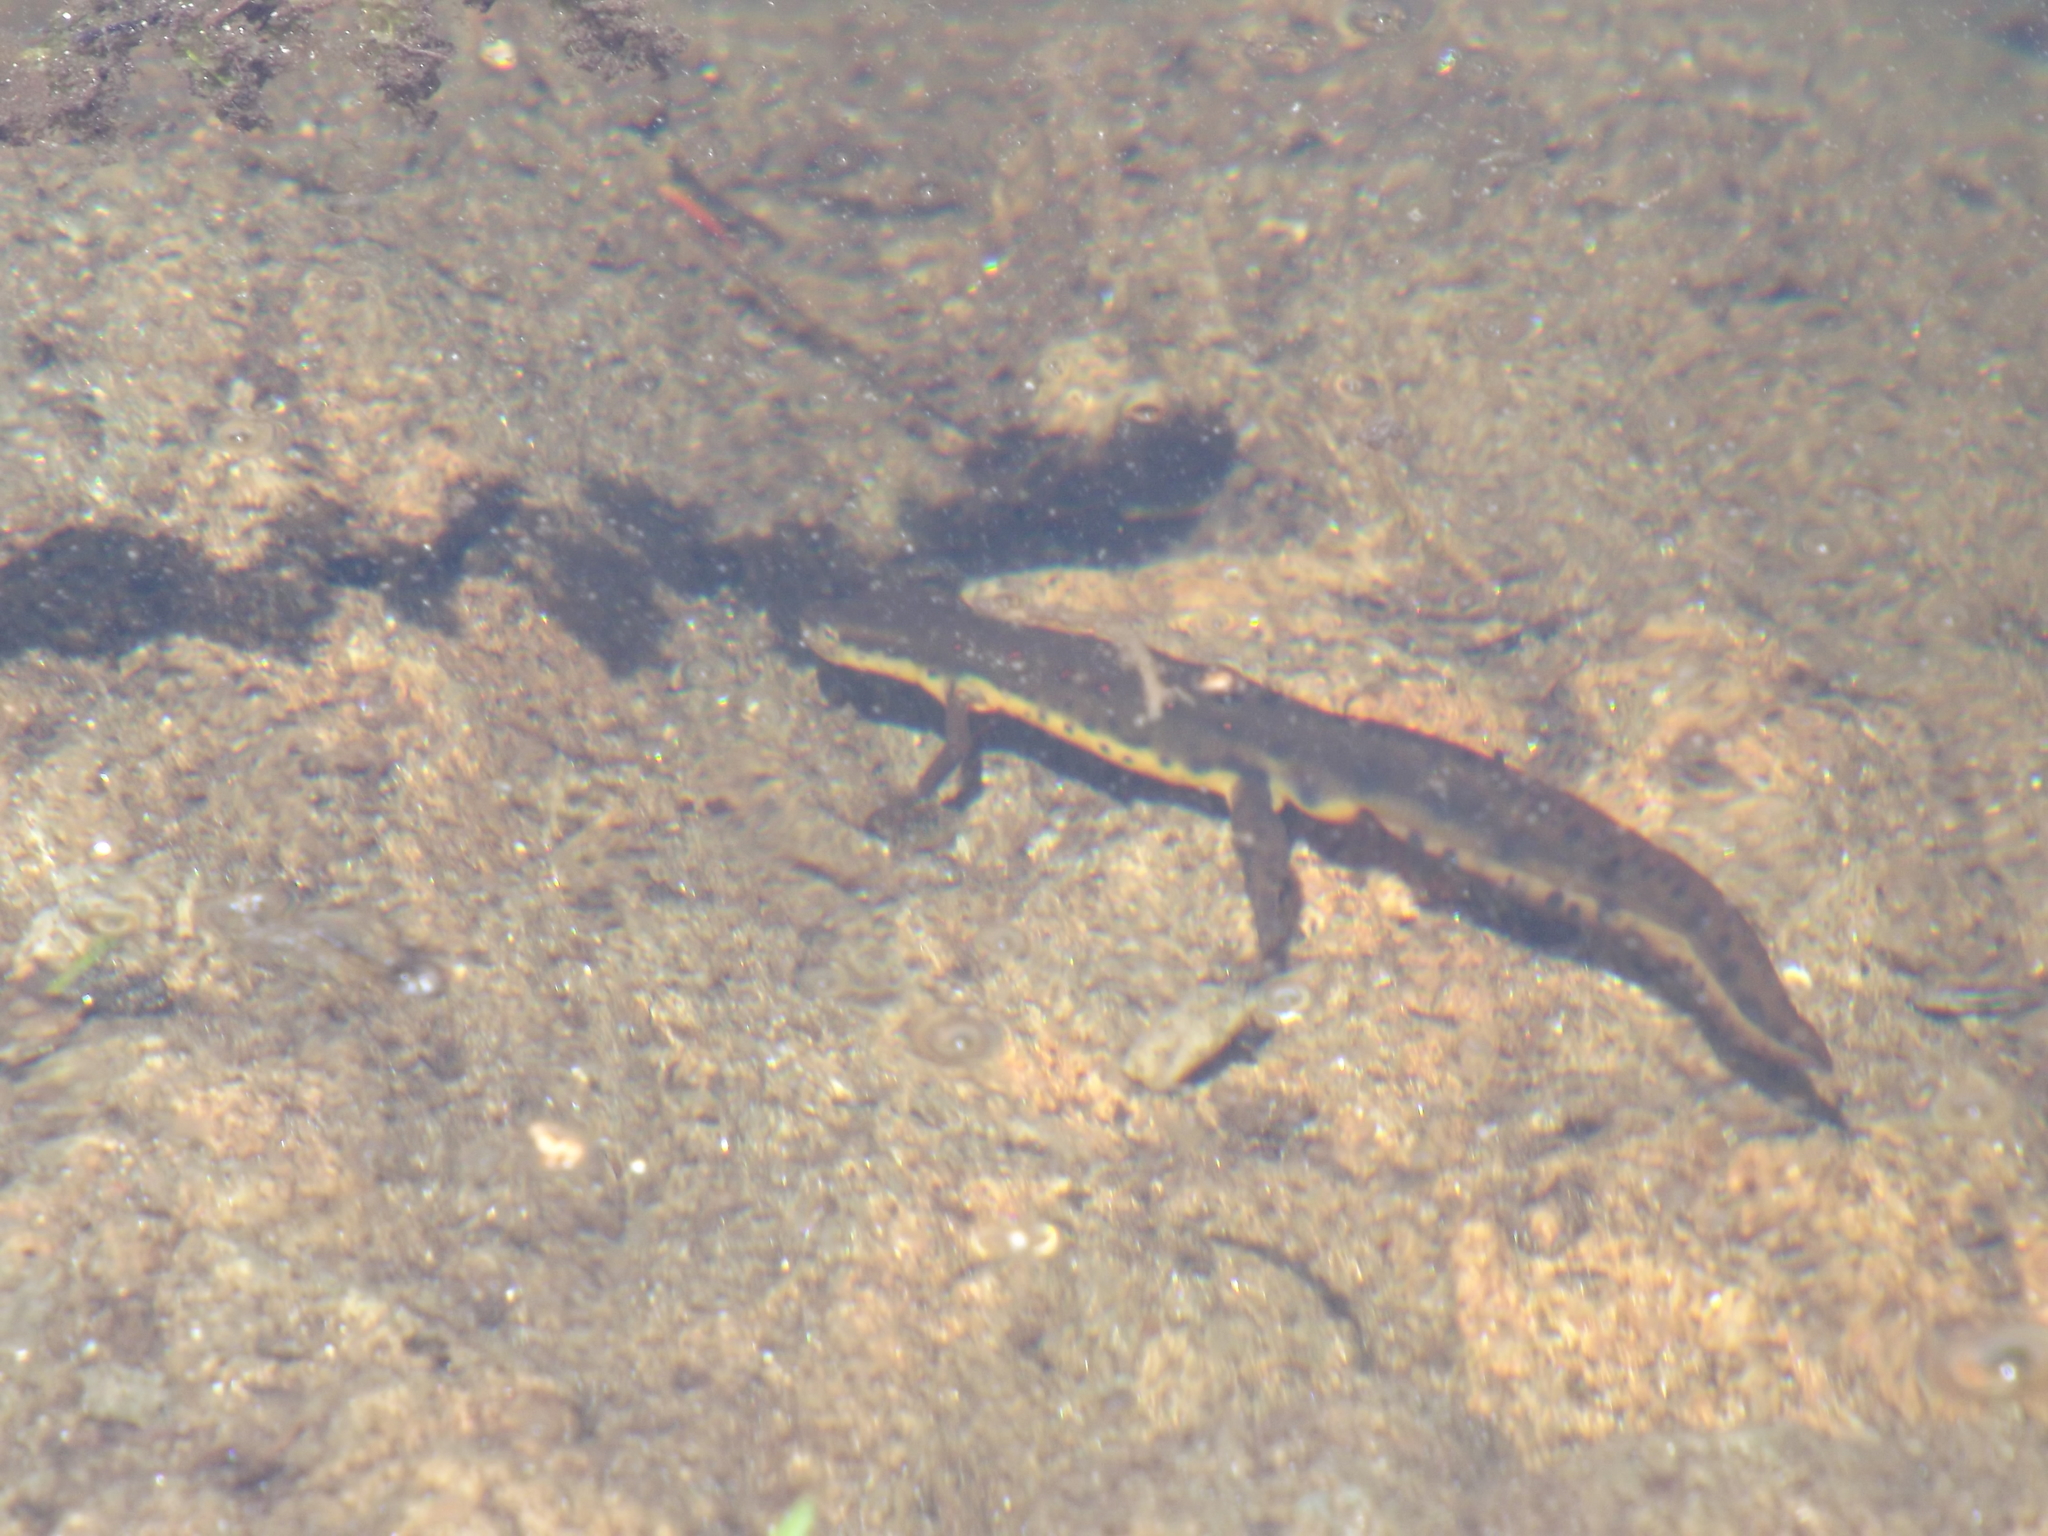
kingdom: Animalia
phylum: Chordata
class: Amphibia
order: Caudata
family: Salamandridae
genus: Notophthalmus
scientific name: Notophthalmus viridescens
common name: Eastern newt
